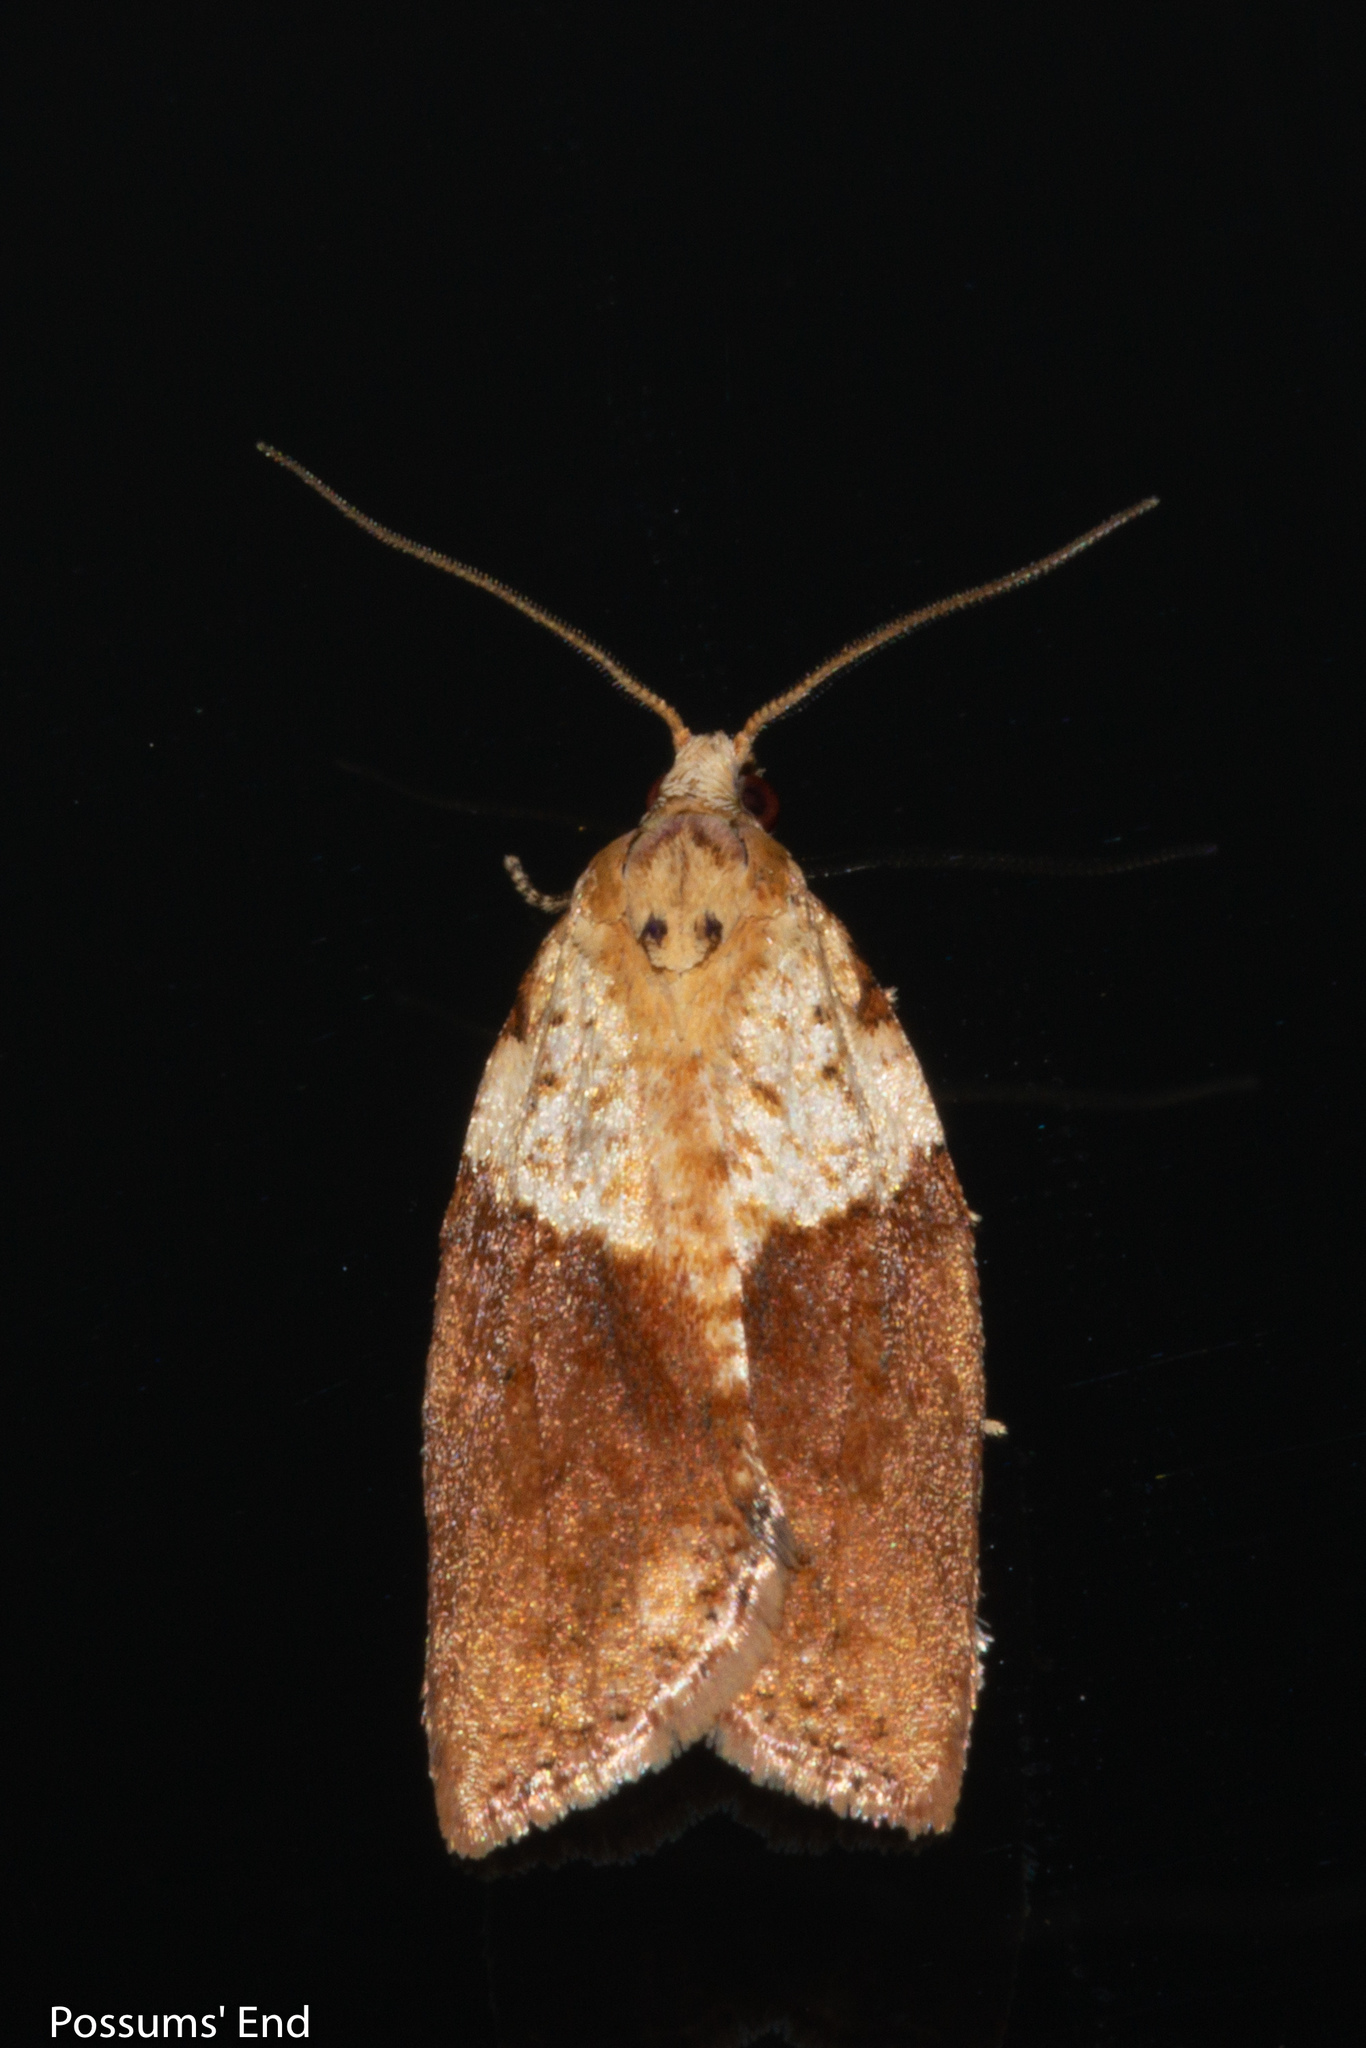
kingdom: Animalia
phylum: Arthropoda
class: Insecta
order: Lepidoptera
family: Tortricidae
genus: Epiphyas
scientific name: Epiphyas postvittana
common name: Light brown apple moth
